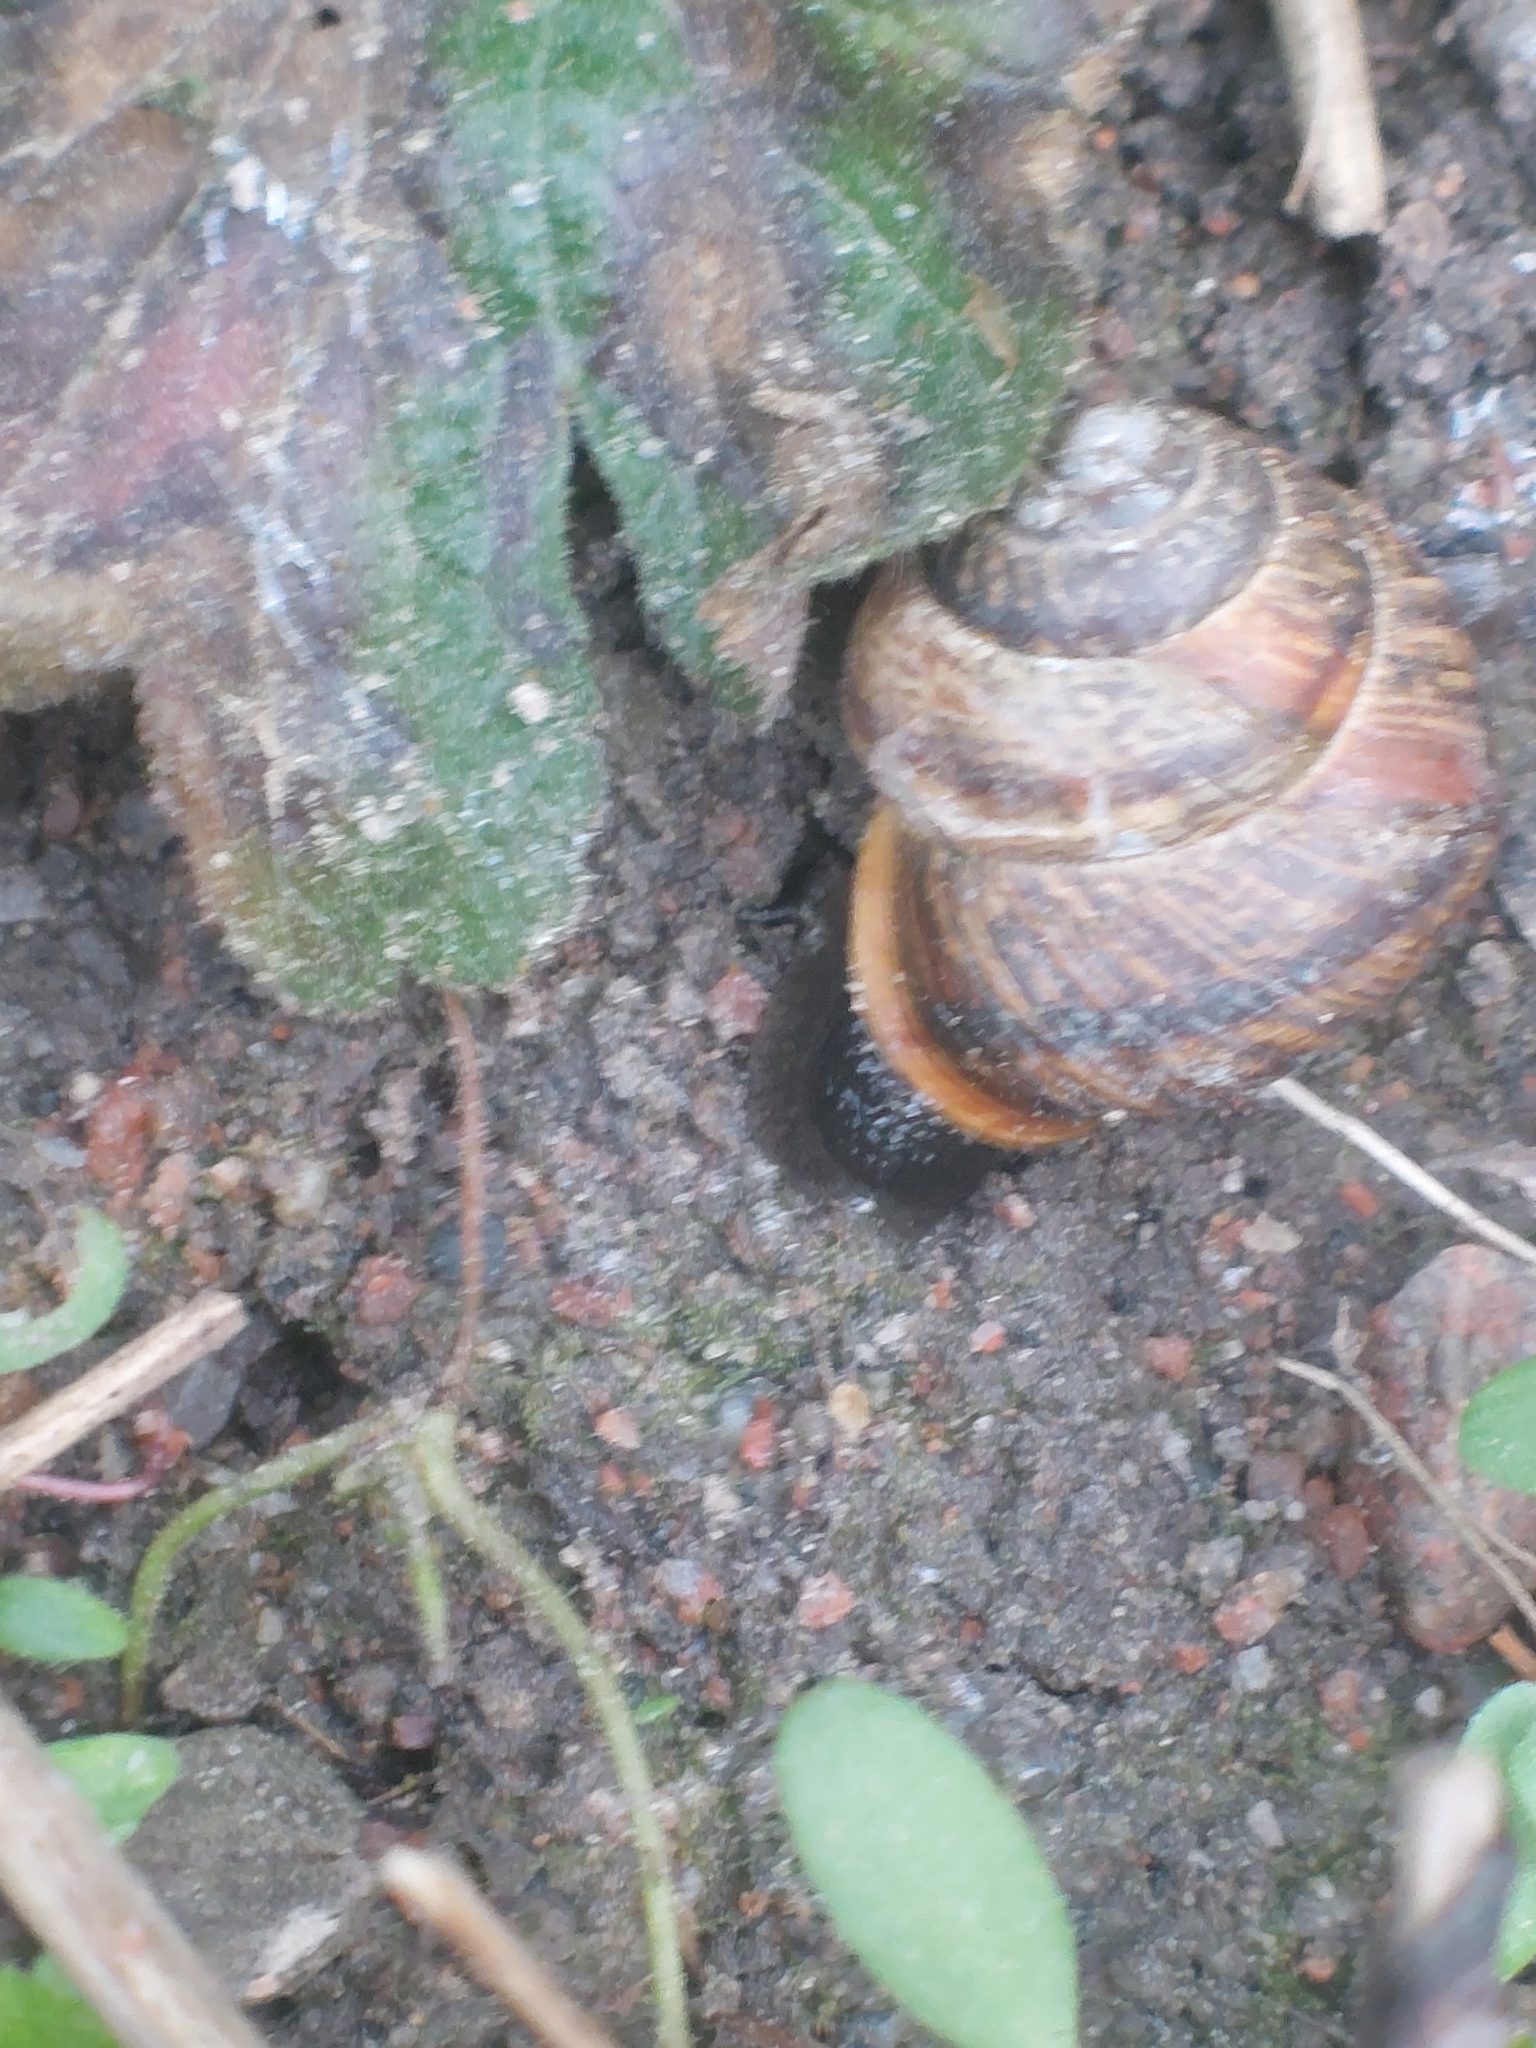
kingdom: Animalia
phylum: Mollusca
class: Gastropoda
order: Stylommatophora
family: Helicidae
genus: Arianta
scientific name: Arianta arbustorum
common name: Copse snail
